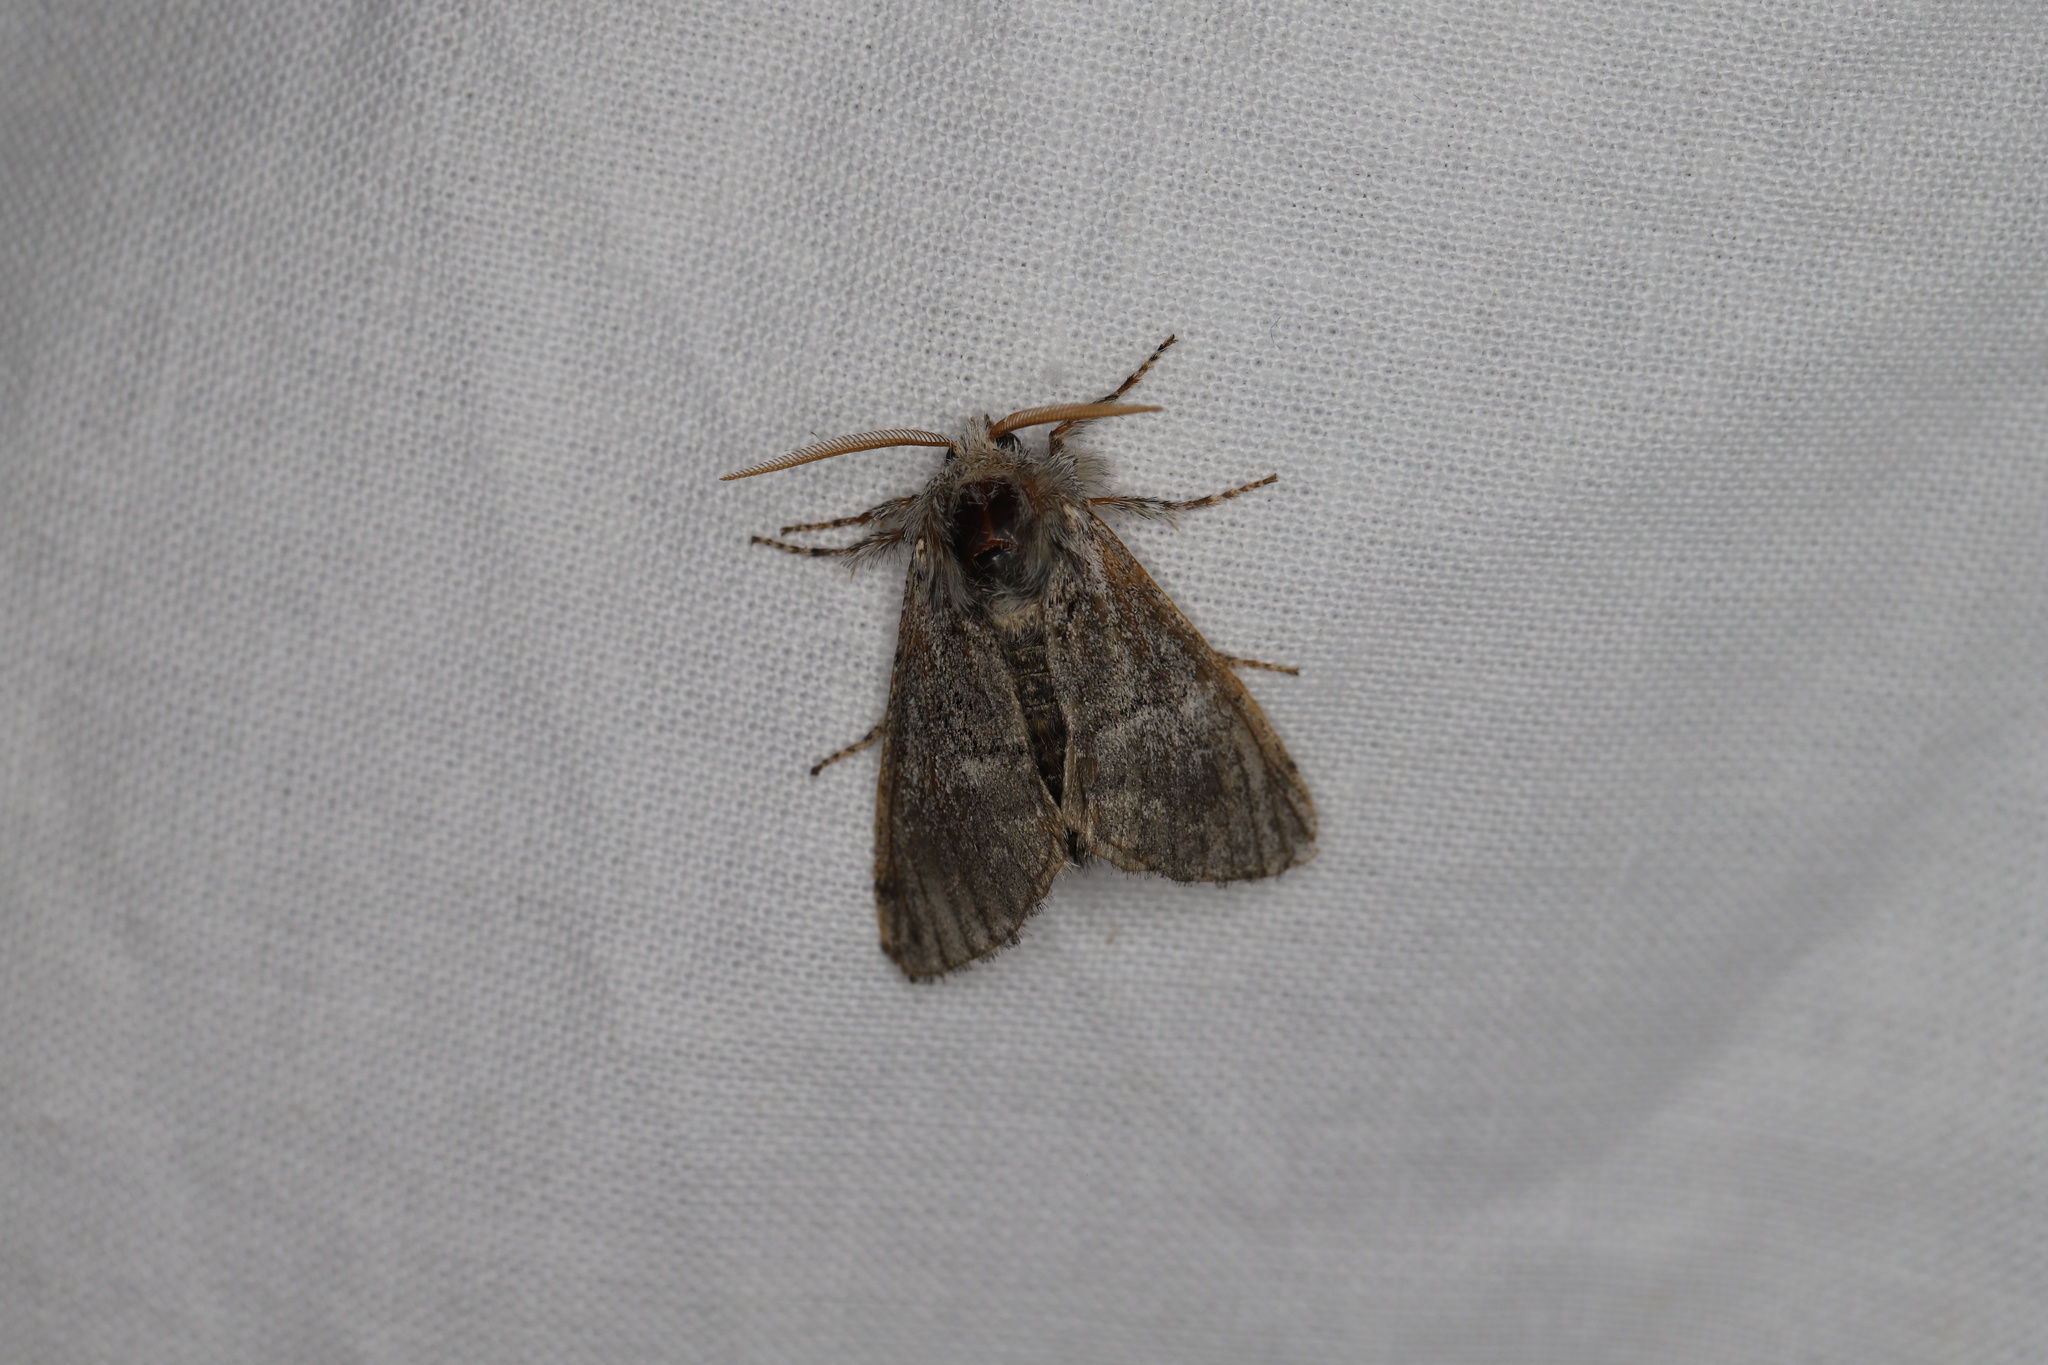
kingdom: Animalia
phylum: Arthropoda
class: Insecta
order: Lepidoptera
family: Noctuidae
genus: Colocasia
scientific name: Colocasia coryli
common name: Nut-tree tussock
